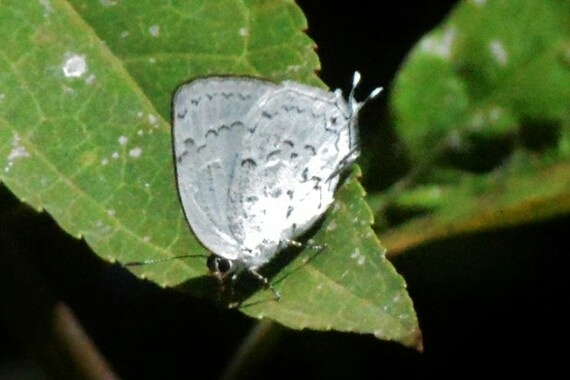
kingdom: Animalia
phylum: Arthropoda
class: Insecta
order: Lepidoptera
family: Lycaenidae
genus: Ostrinotes
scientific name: Ostrinotes
